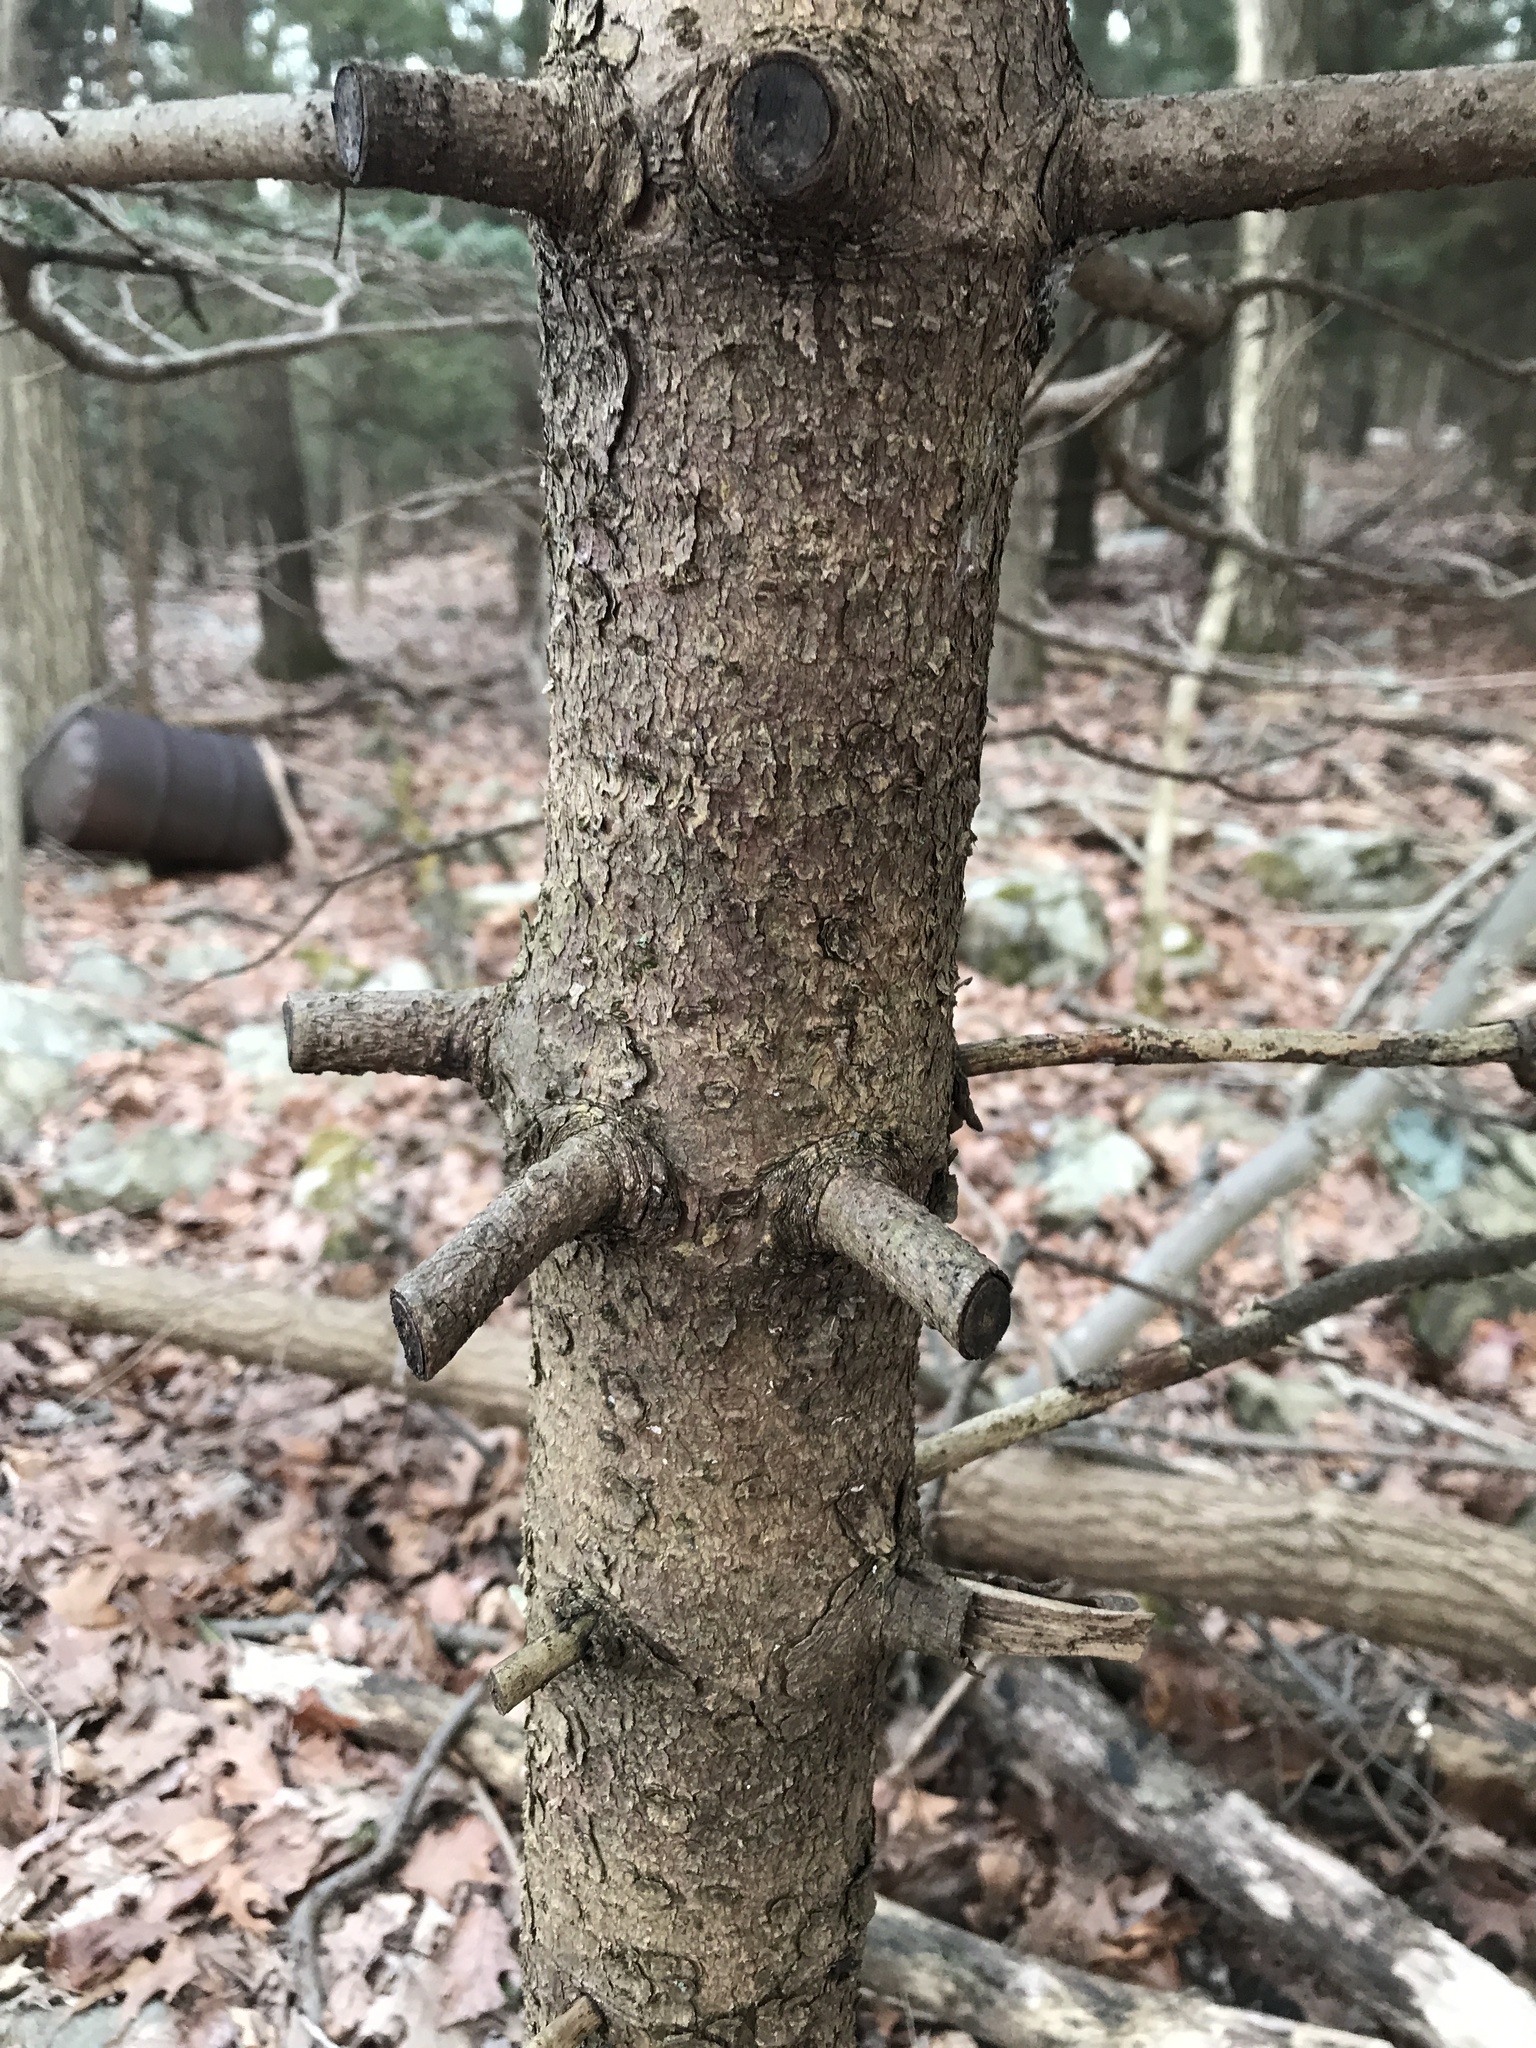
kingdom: Plantae
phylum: Tracheophyta
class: Pinopsida
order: Pinales
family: Pinaceae
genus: Picea
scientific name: Picea abies
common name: Norway spruce
